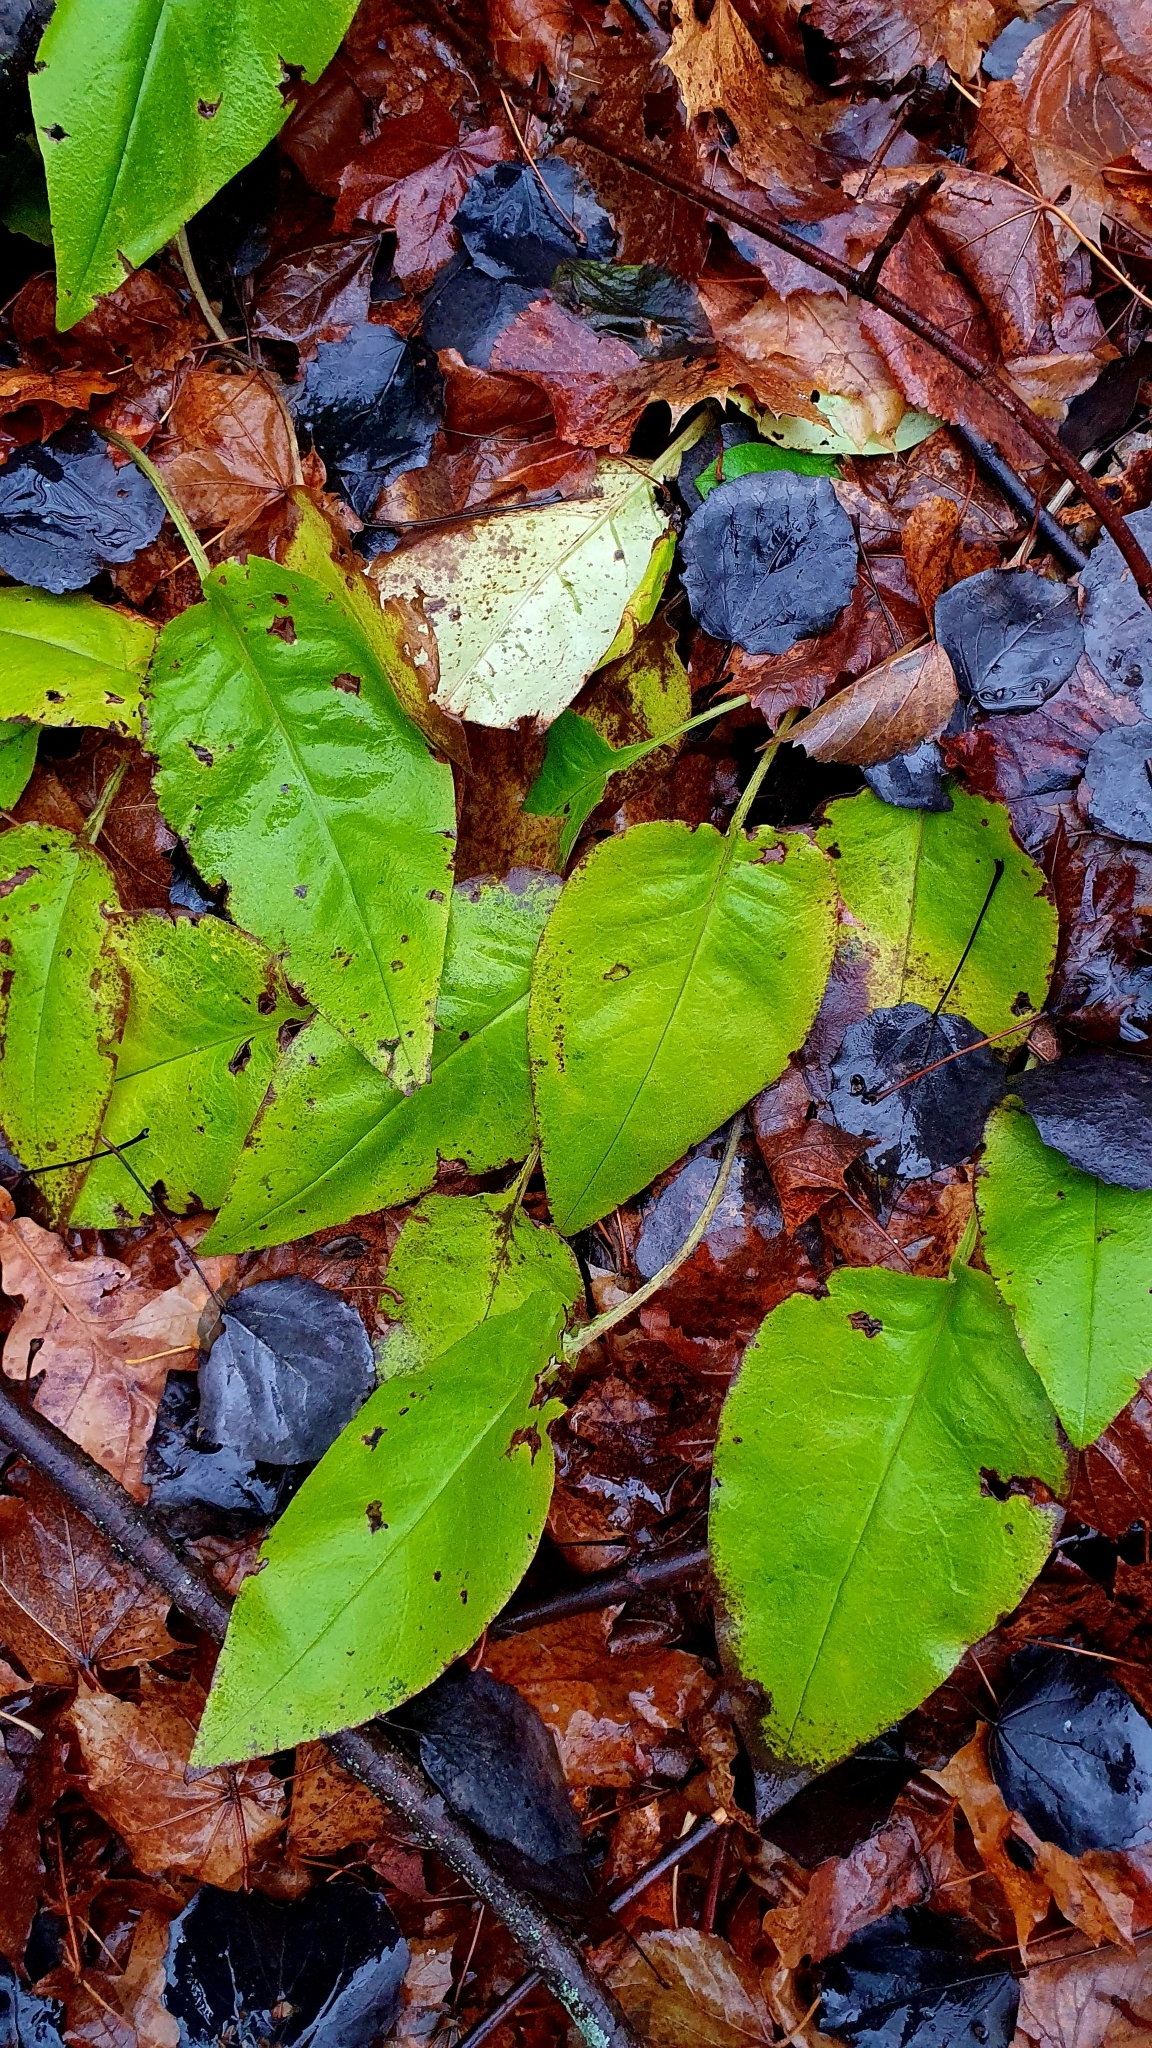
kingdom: Plantae
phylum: Tracheophyta
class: Magnoliopsida
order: Boraginales
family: Boraginaceae
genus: Pulmonaria
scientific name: Pulmonaria obscura
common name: Suffolk lungwort
